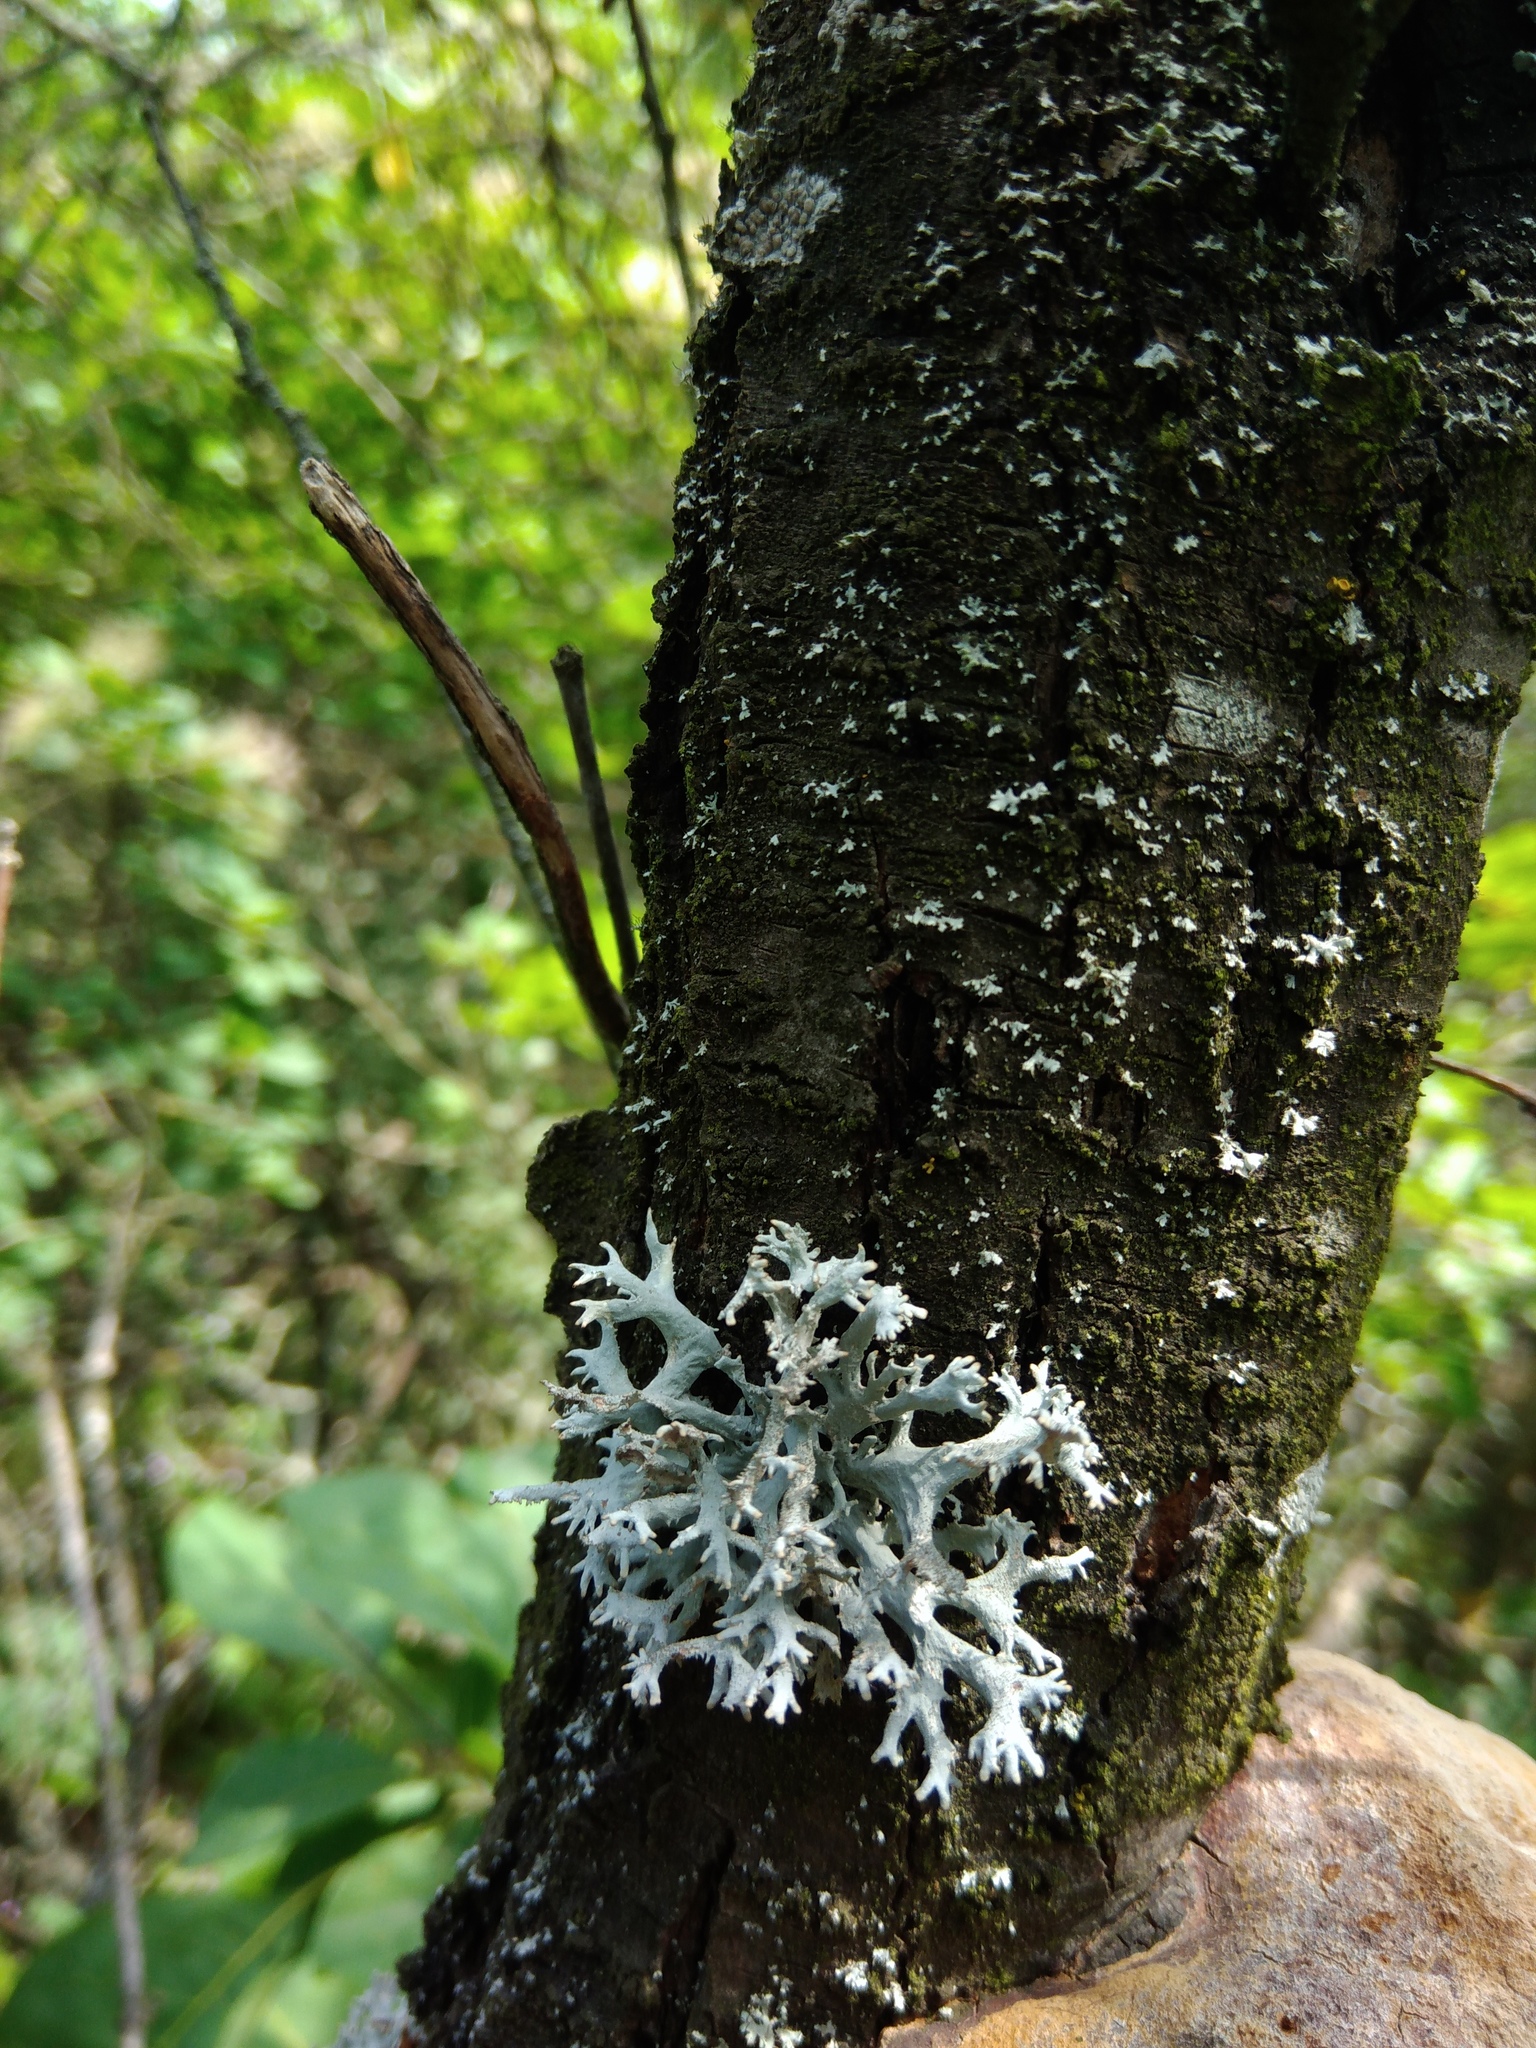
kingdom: Fungi
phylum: Ascomycota
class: Lecanoromycetes
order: Lecanorales
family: Parmeliaceae
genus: Pseudevernia
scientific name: Pseudevernia furfuracea
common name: Tree moss
